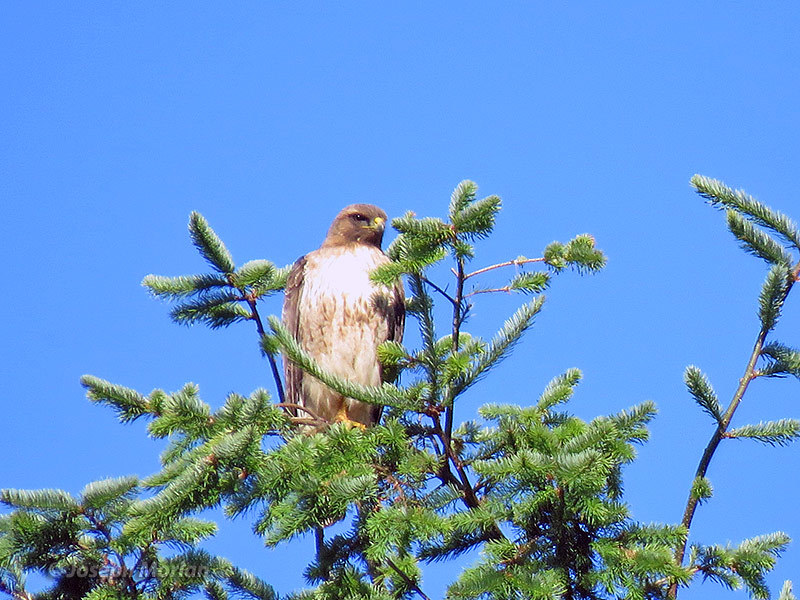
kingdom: Animalia
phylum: Chordata
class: Aves
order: Accipitriformes
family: Accipitridae
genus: Buteo
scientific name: Buteo jamaicensis
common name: Red-tailed hawk
